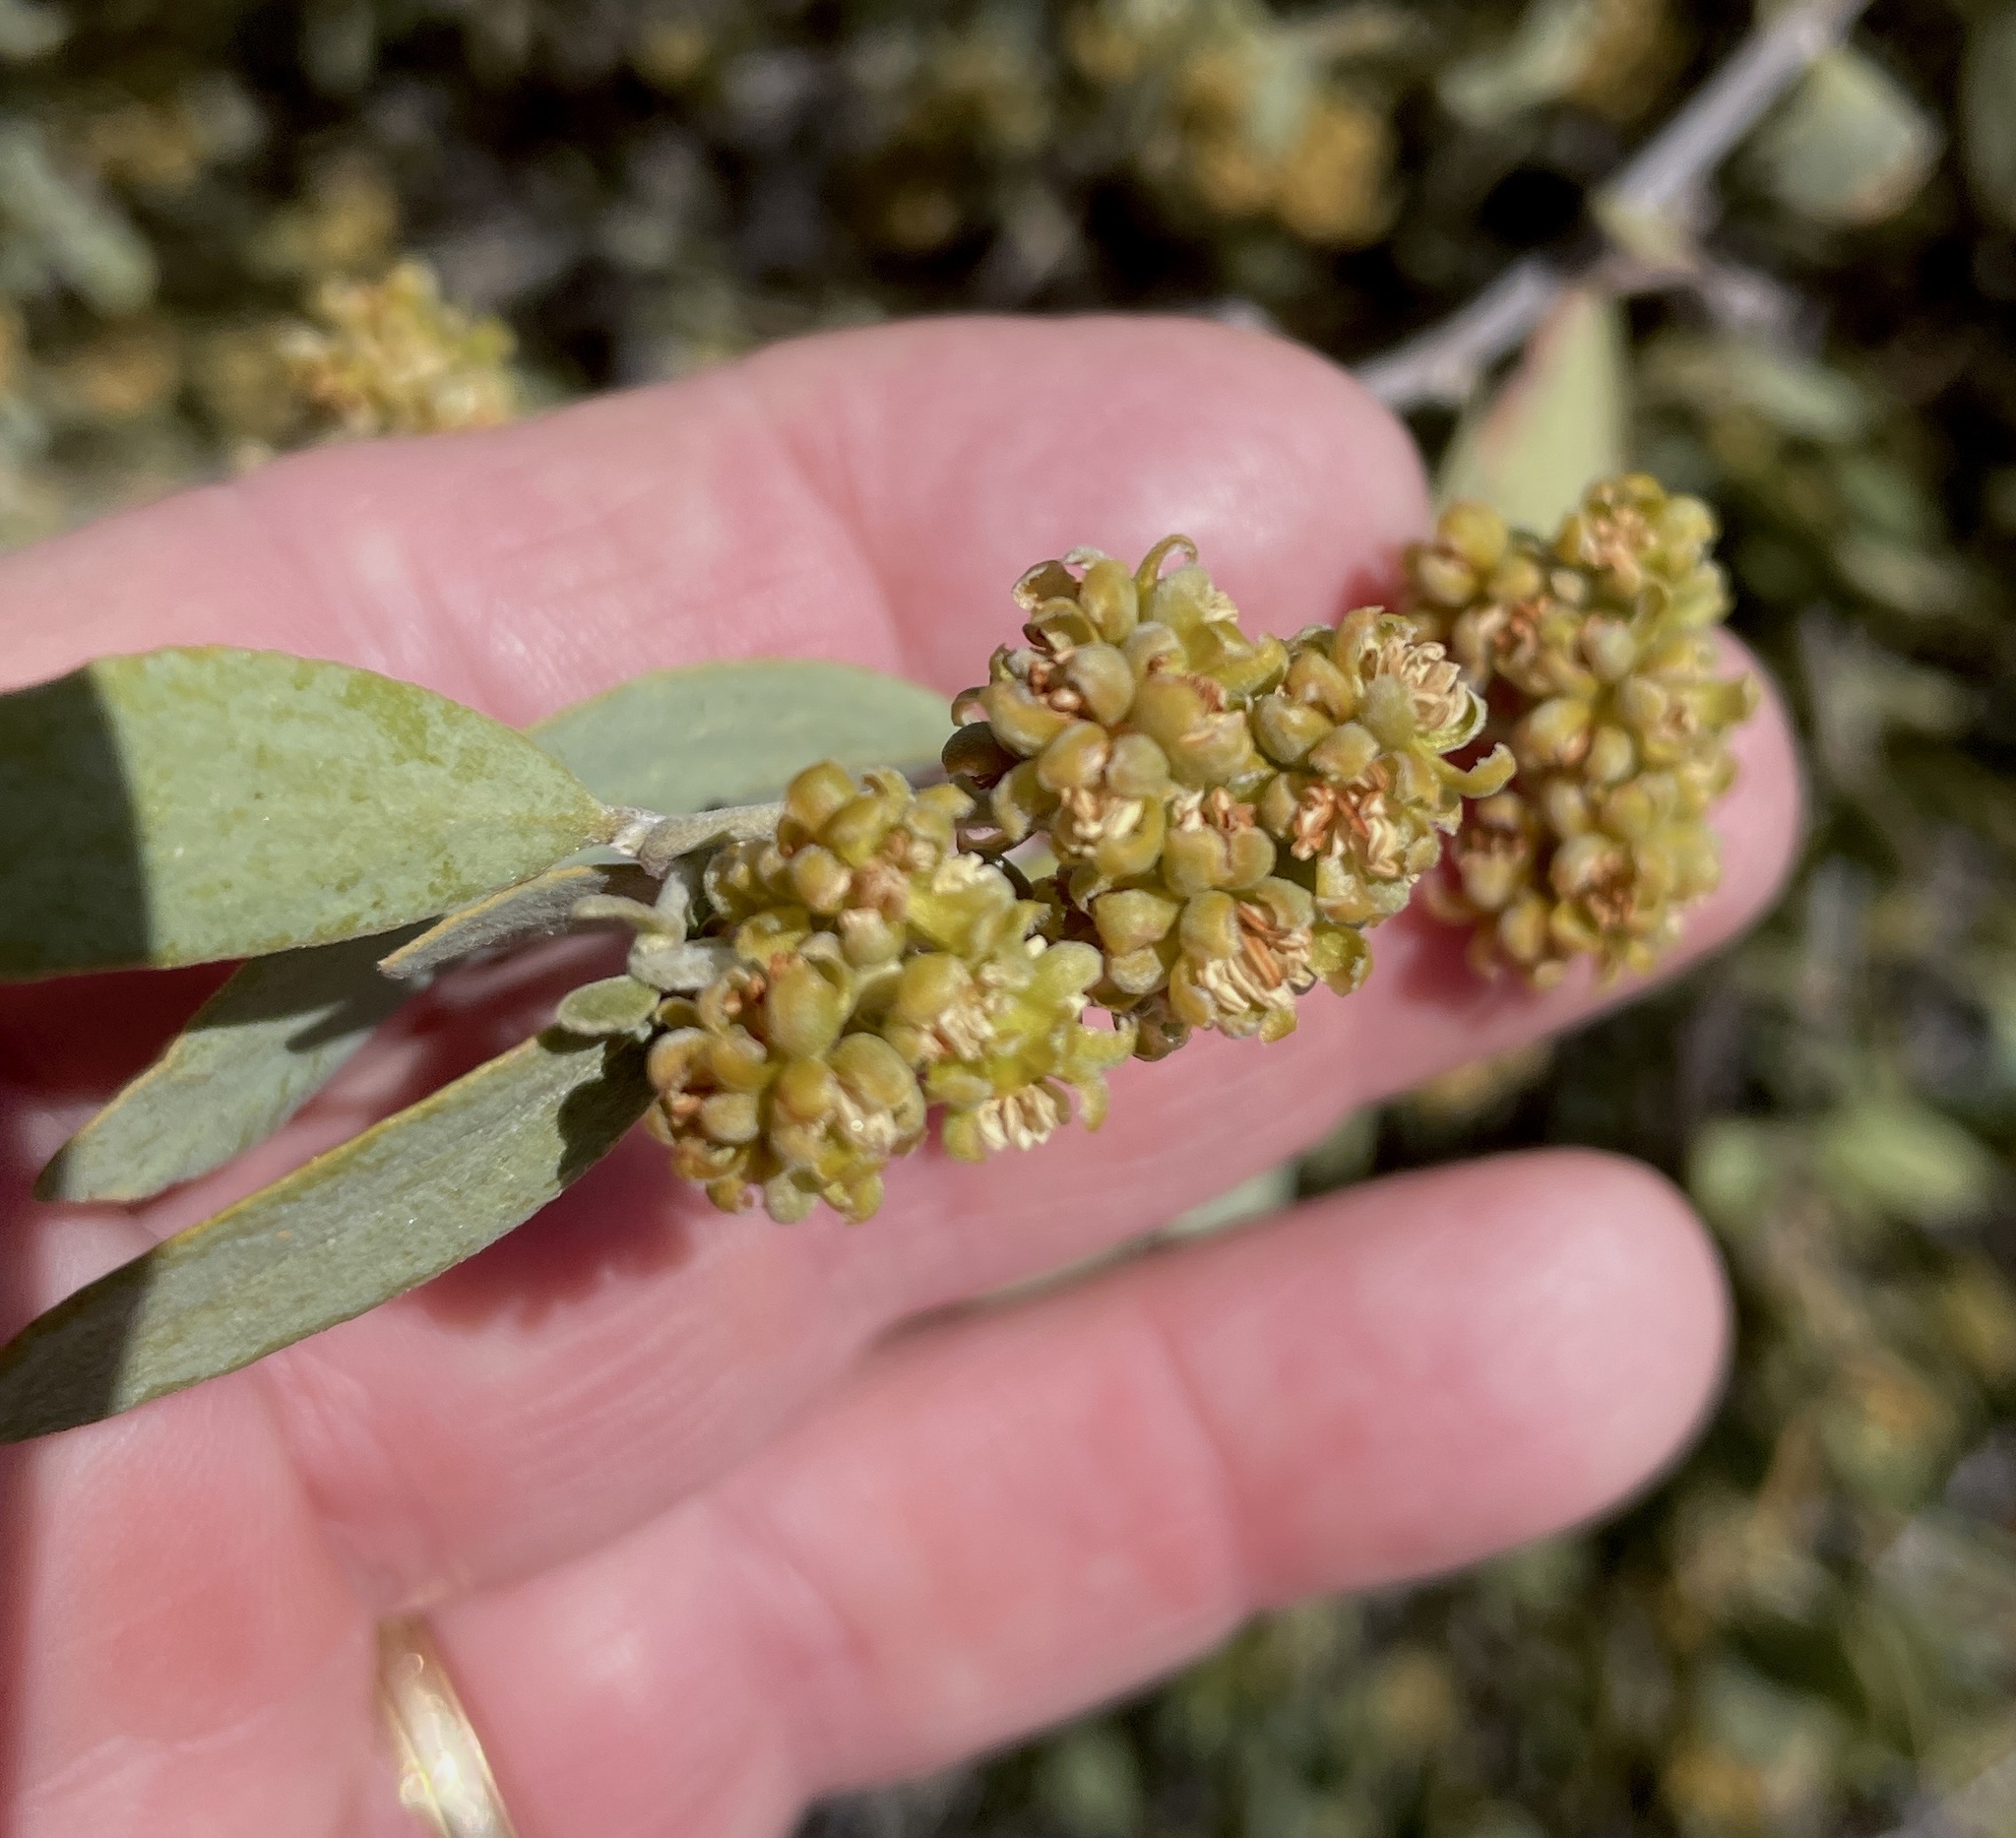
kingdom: Plantae
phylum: Tracheophyta
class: Magnoliopsida
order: Caryophyllales
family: Simmondsiaceae
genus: Simmondsia
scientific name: Simmondsia chinensis
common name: Jojoba
